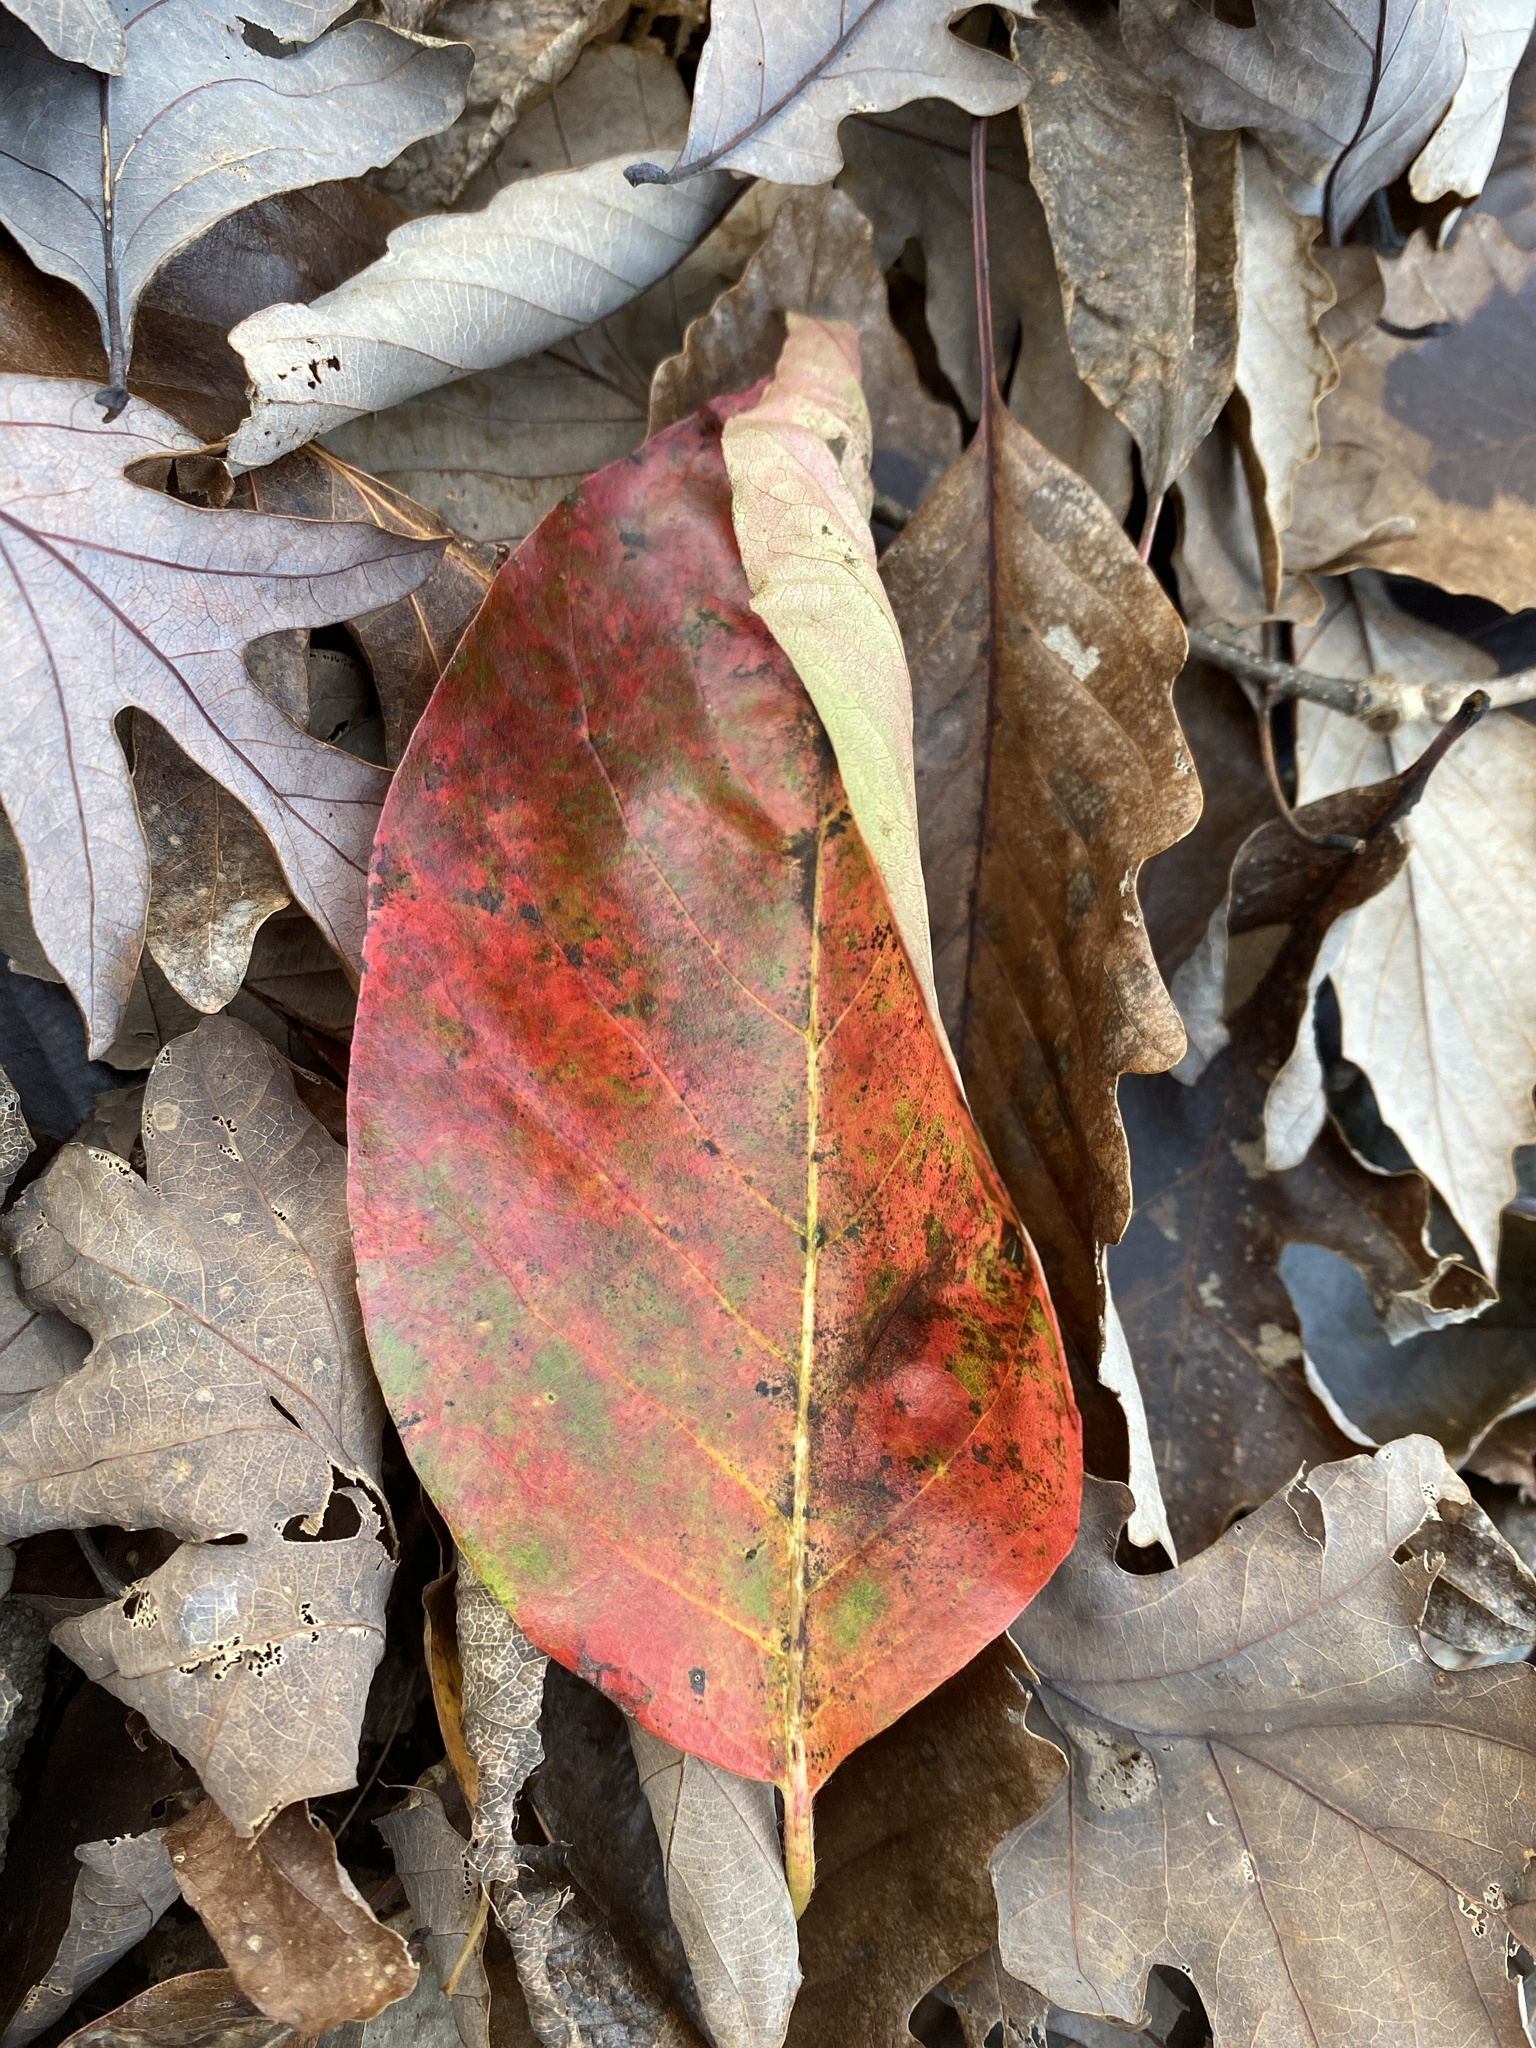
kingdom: Plantae
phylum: Tracheophyta
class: Magnoliopsida
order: Cornales
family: Nyssaceae
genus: Nyssa
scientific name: Nyssa sylvatica
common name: Black tupelo
